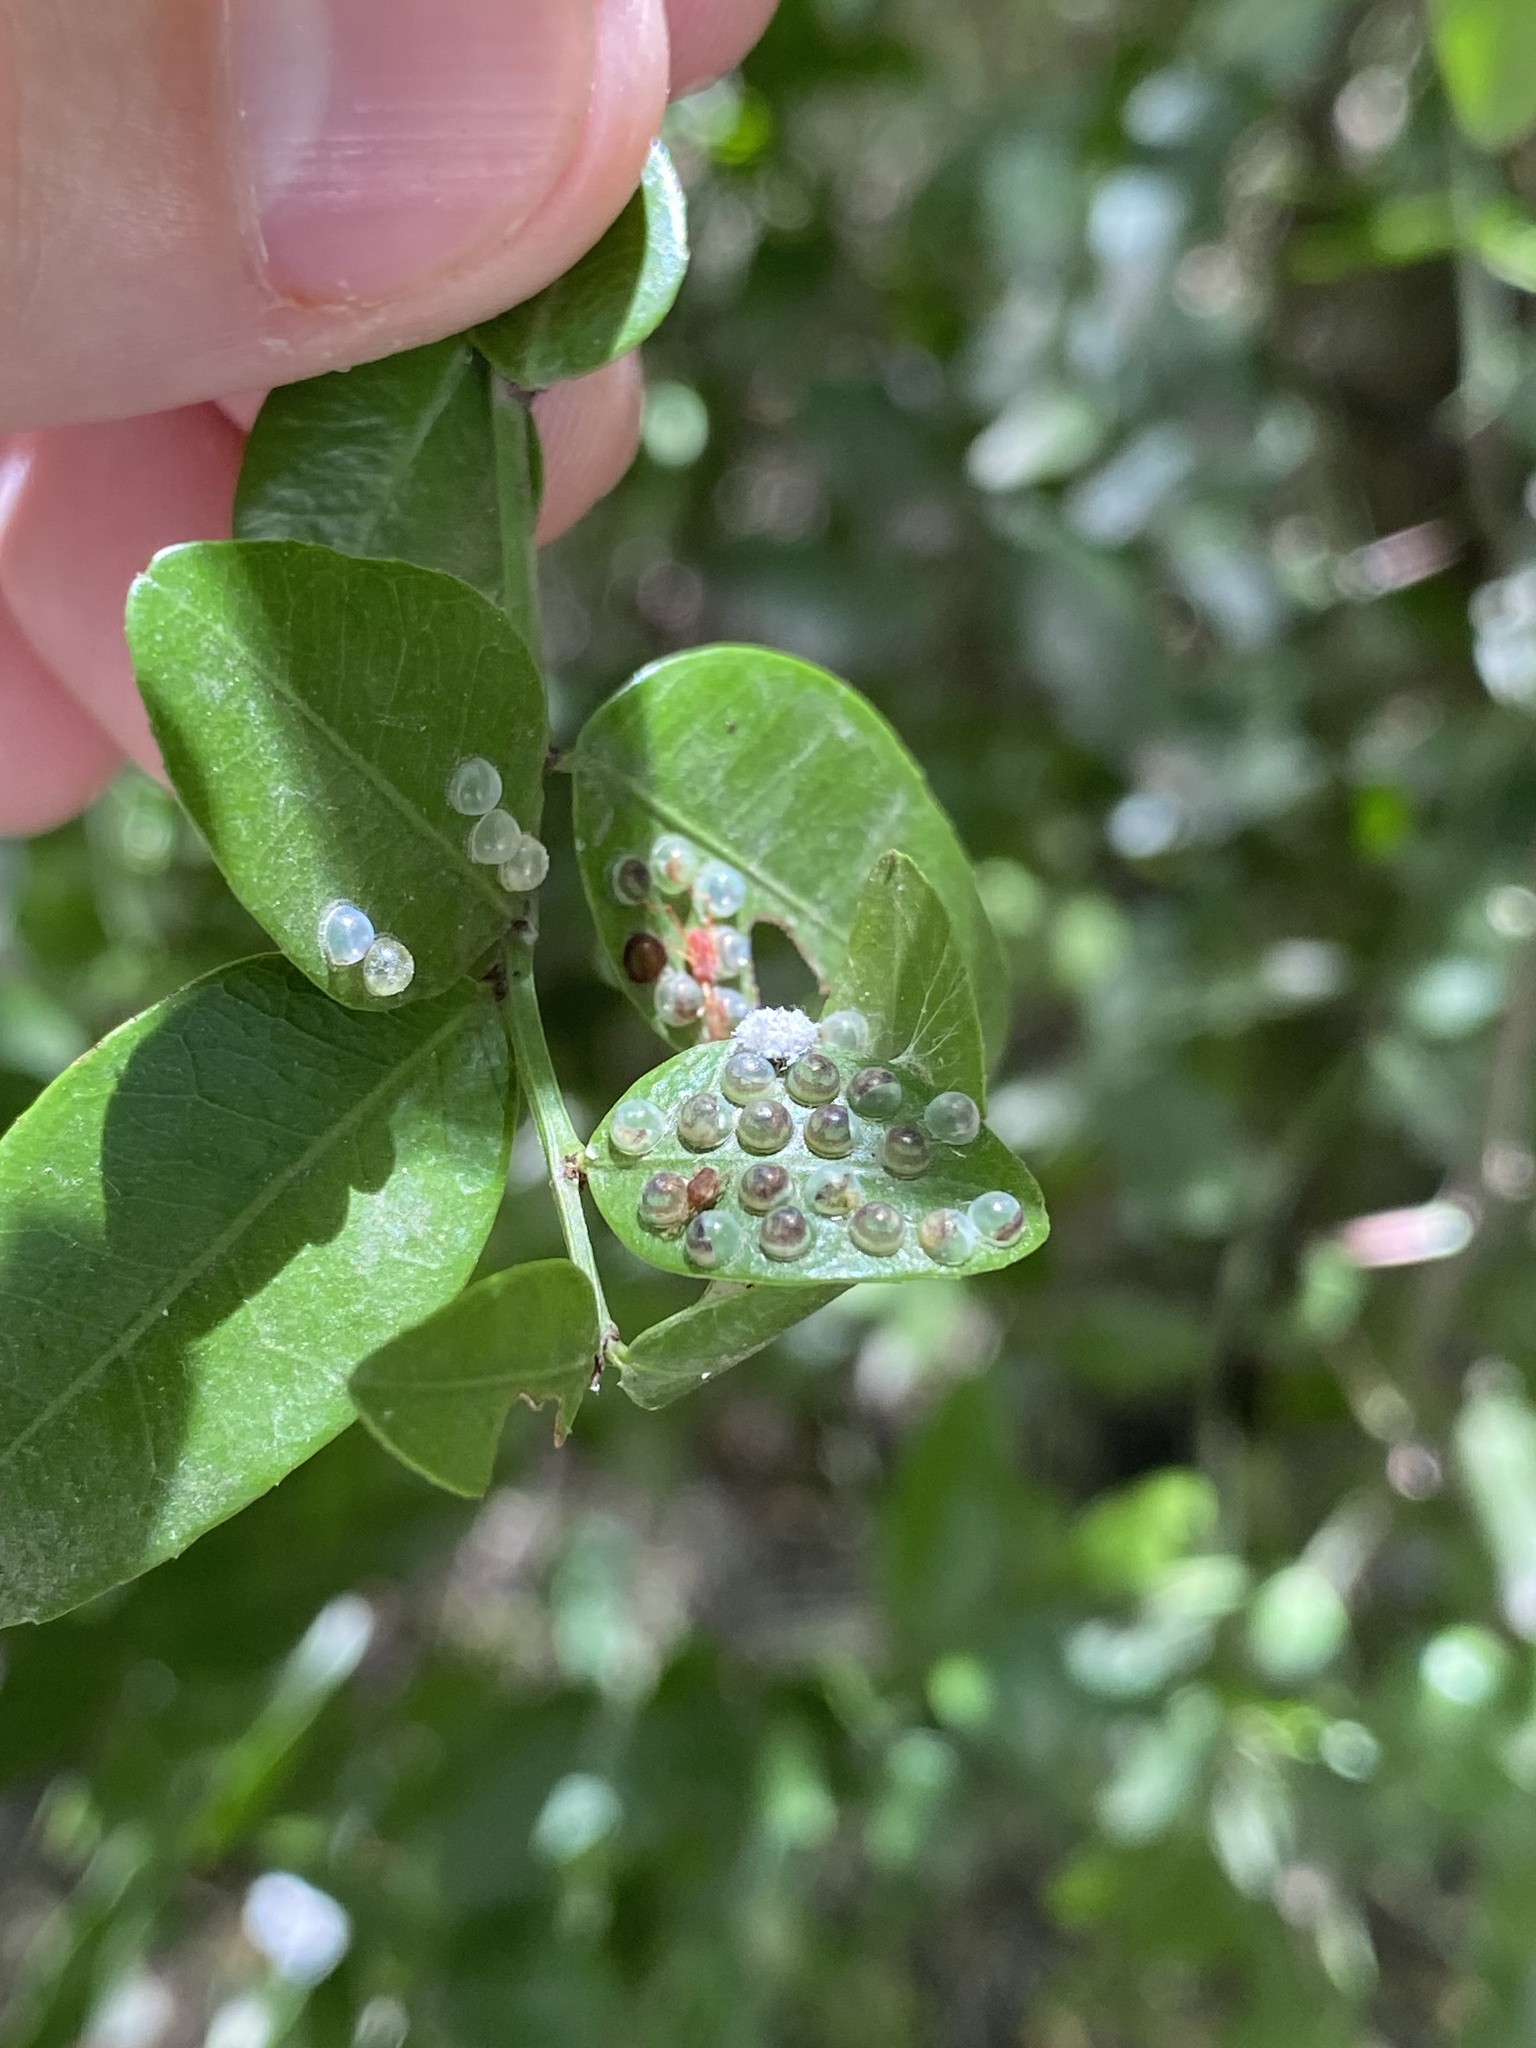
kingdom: Animalia
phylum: Arthropoda
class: Insecta
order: Lepidoptera
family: Nymphalidae
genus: Morpho
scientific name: Morpho epistrophus
